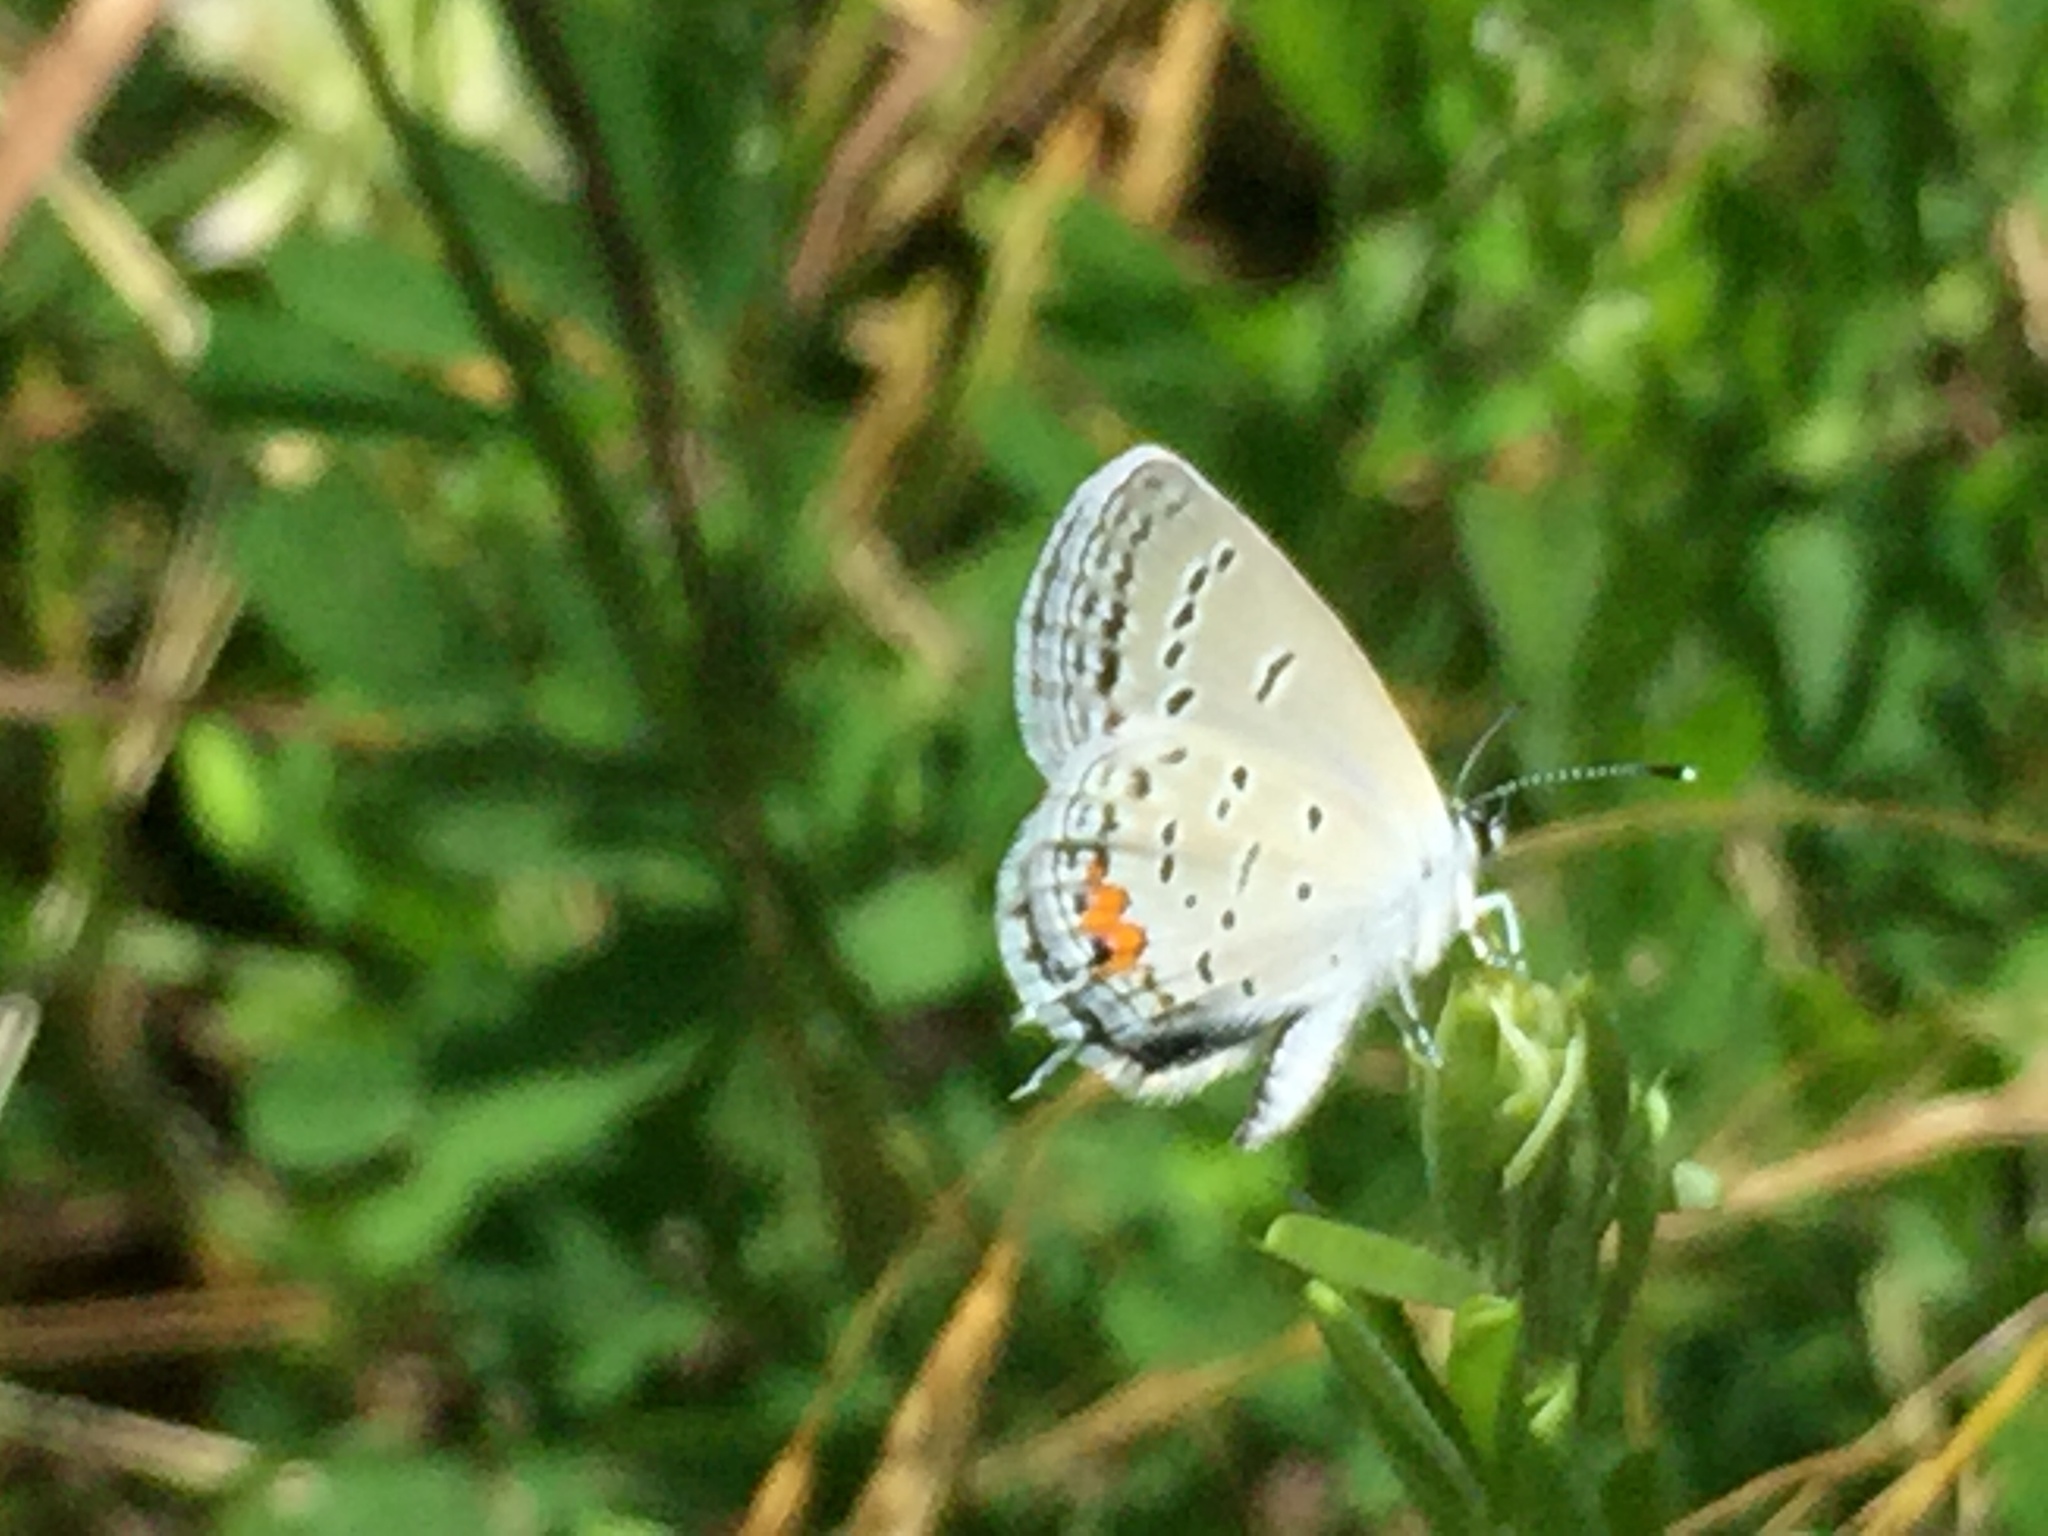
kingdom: Animalia
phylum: Arthropoda
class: Insecta
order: Lepidoptera
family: Lycaenidae
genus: Elkalyce
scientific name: Elkalyce comyntas
